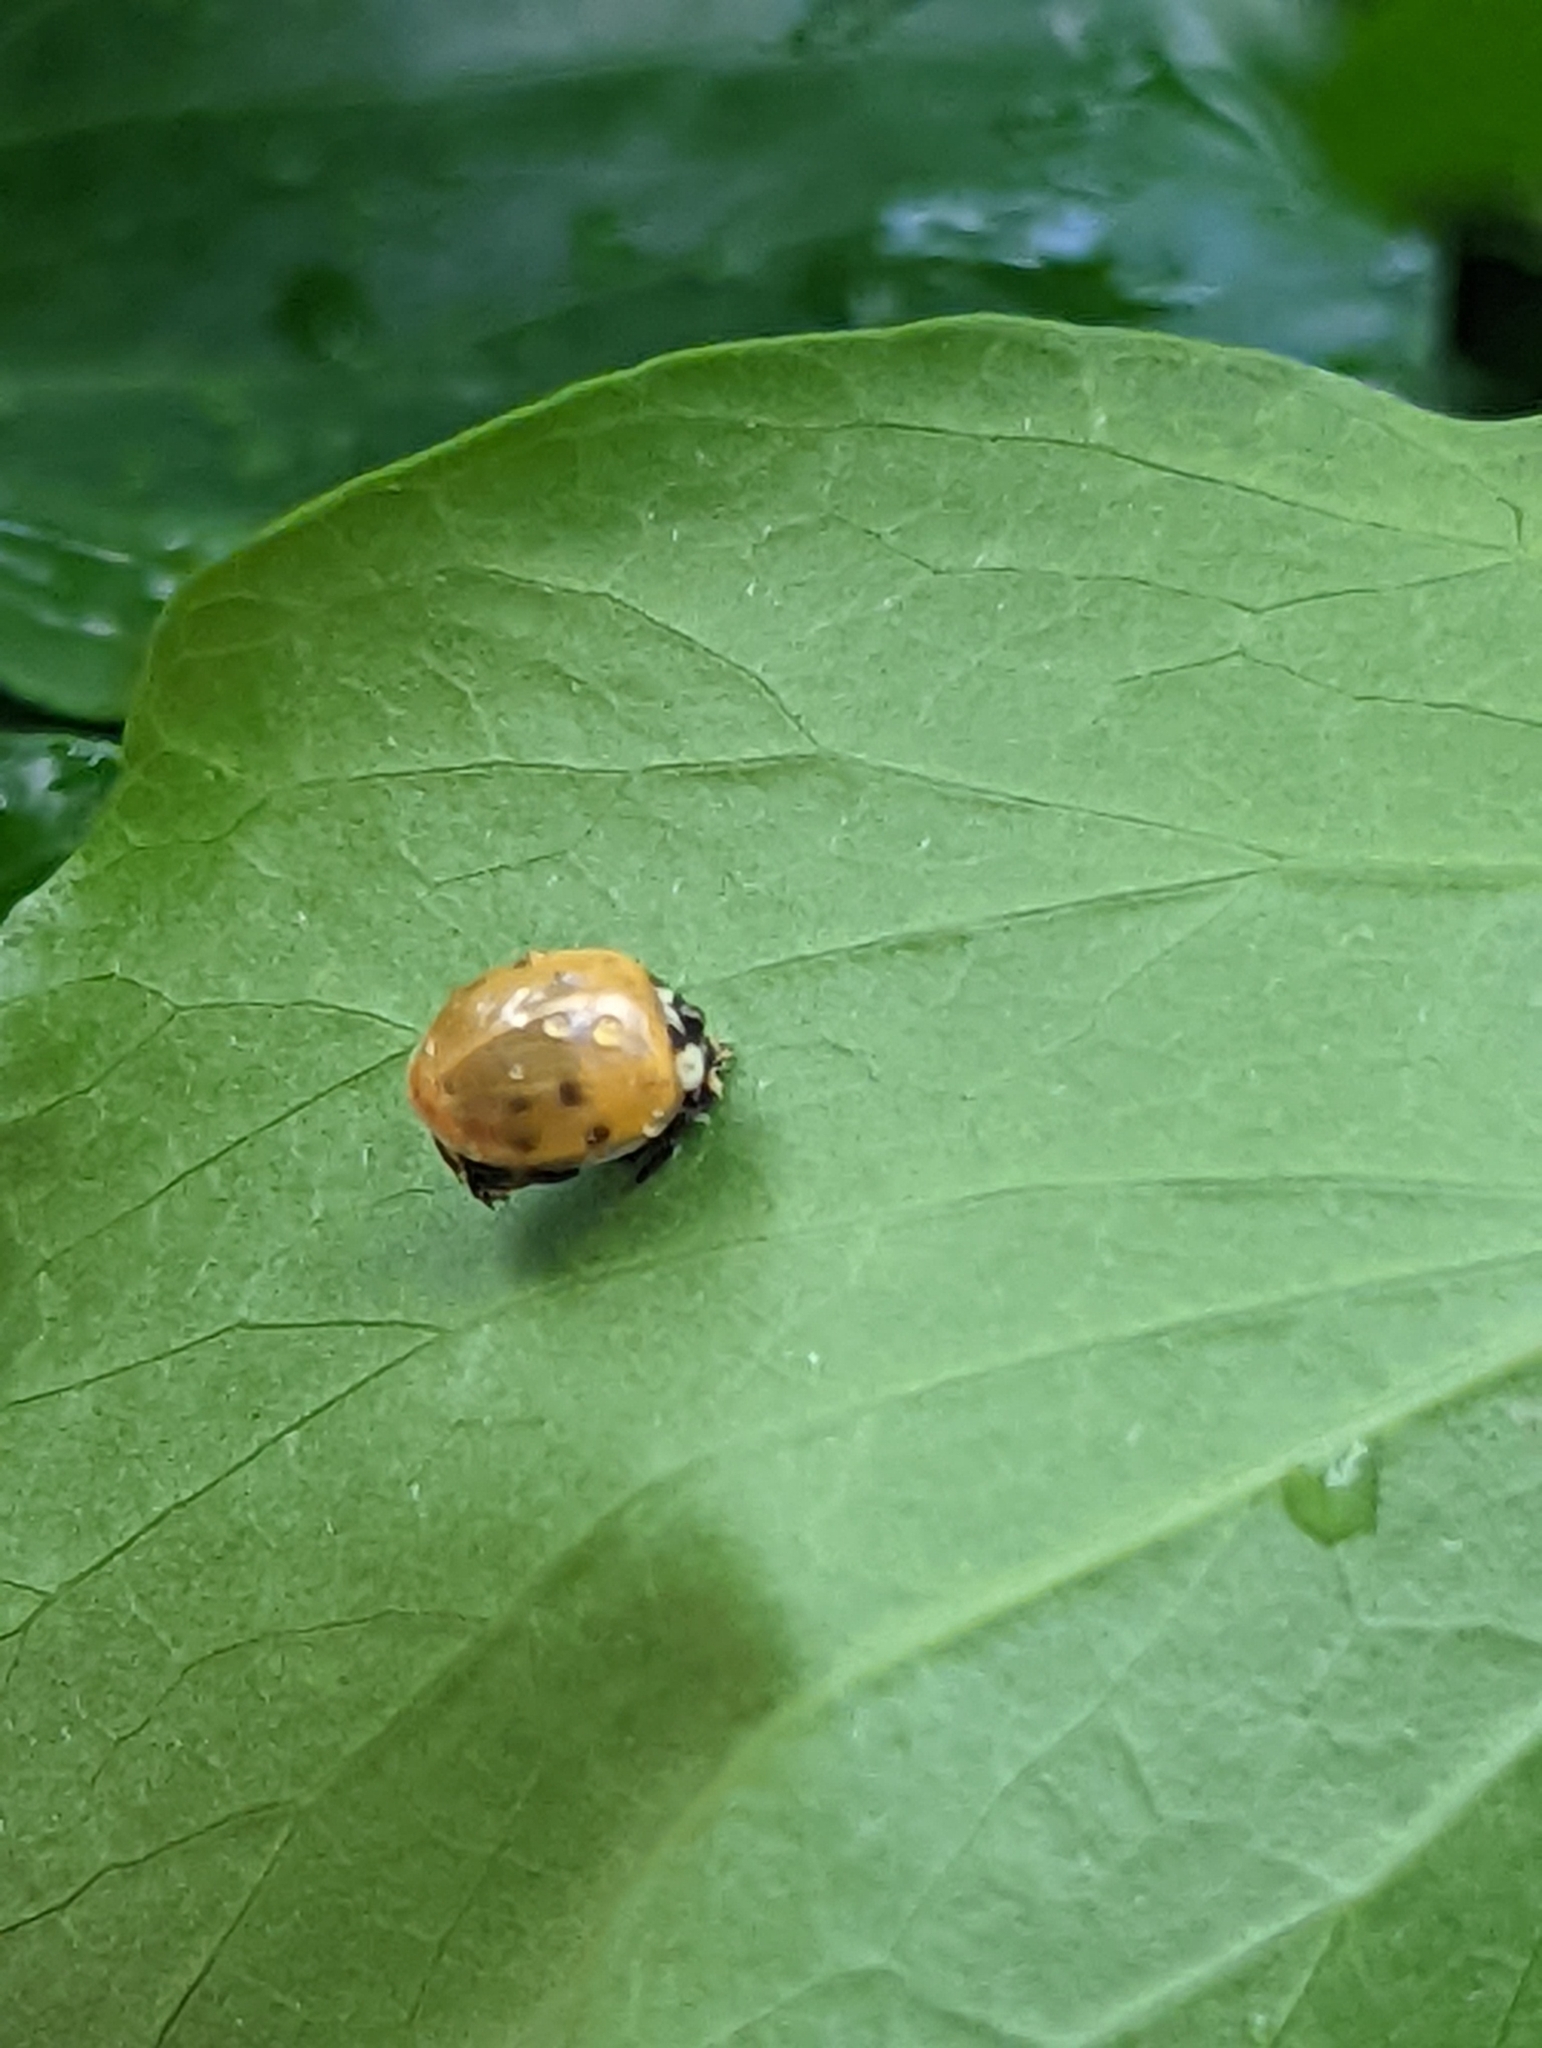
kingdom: Animalia
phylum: Arthropoda
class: Insecta
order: Coleoptera
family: Coccinellidae
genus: Harmonia
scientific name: Harmonia axyridis
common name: Harlequin ladybird
